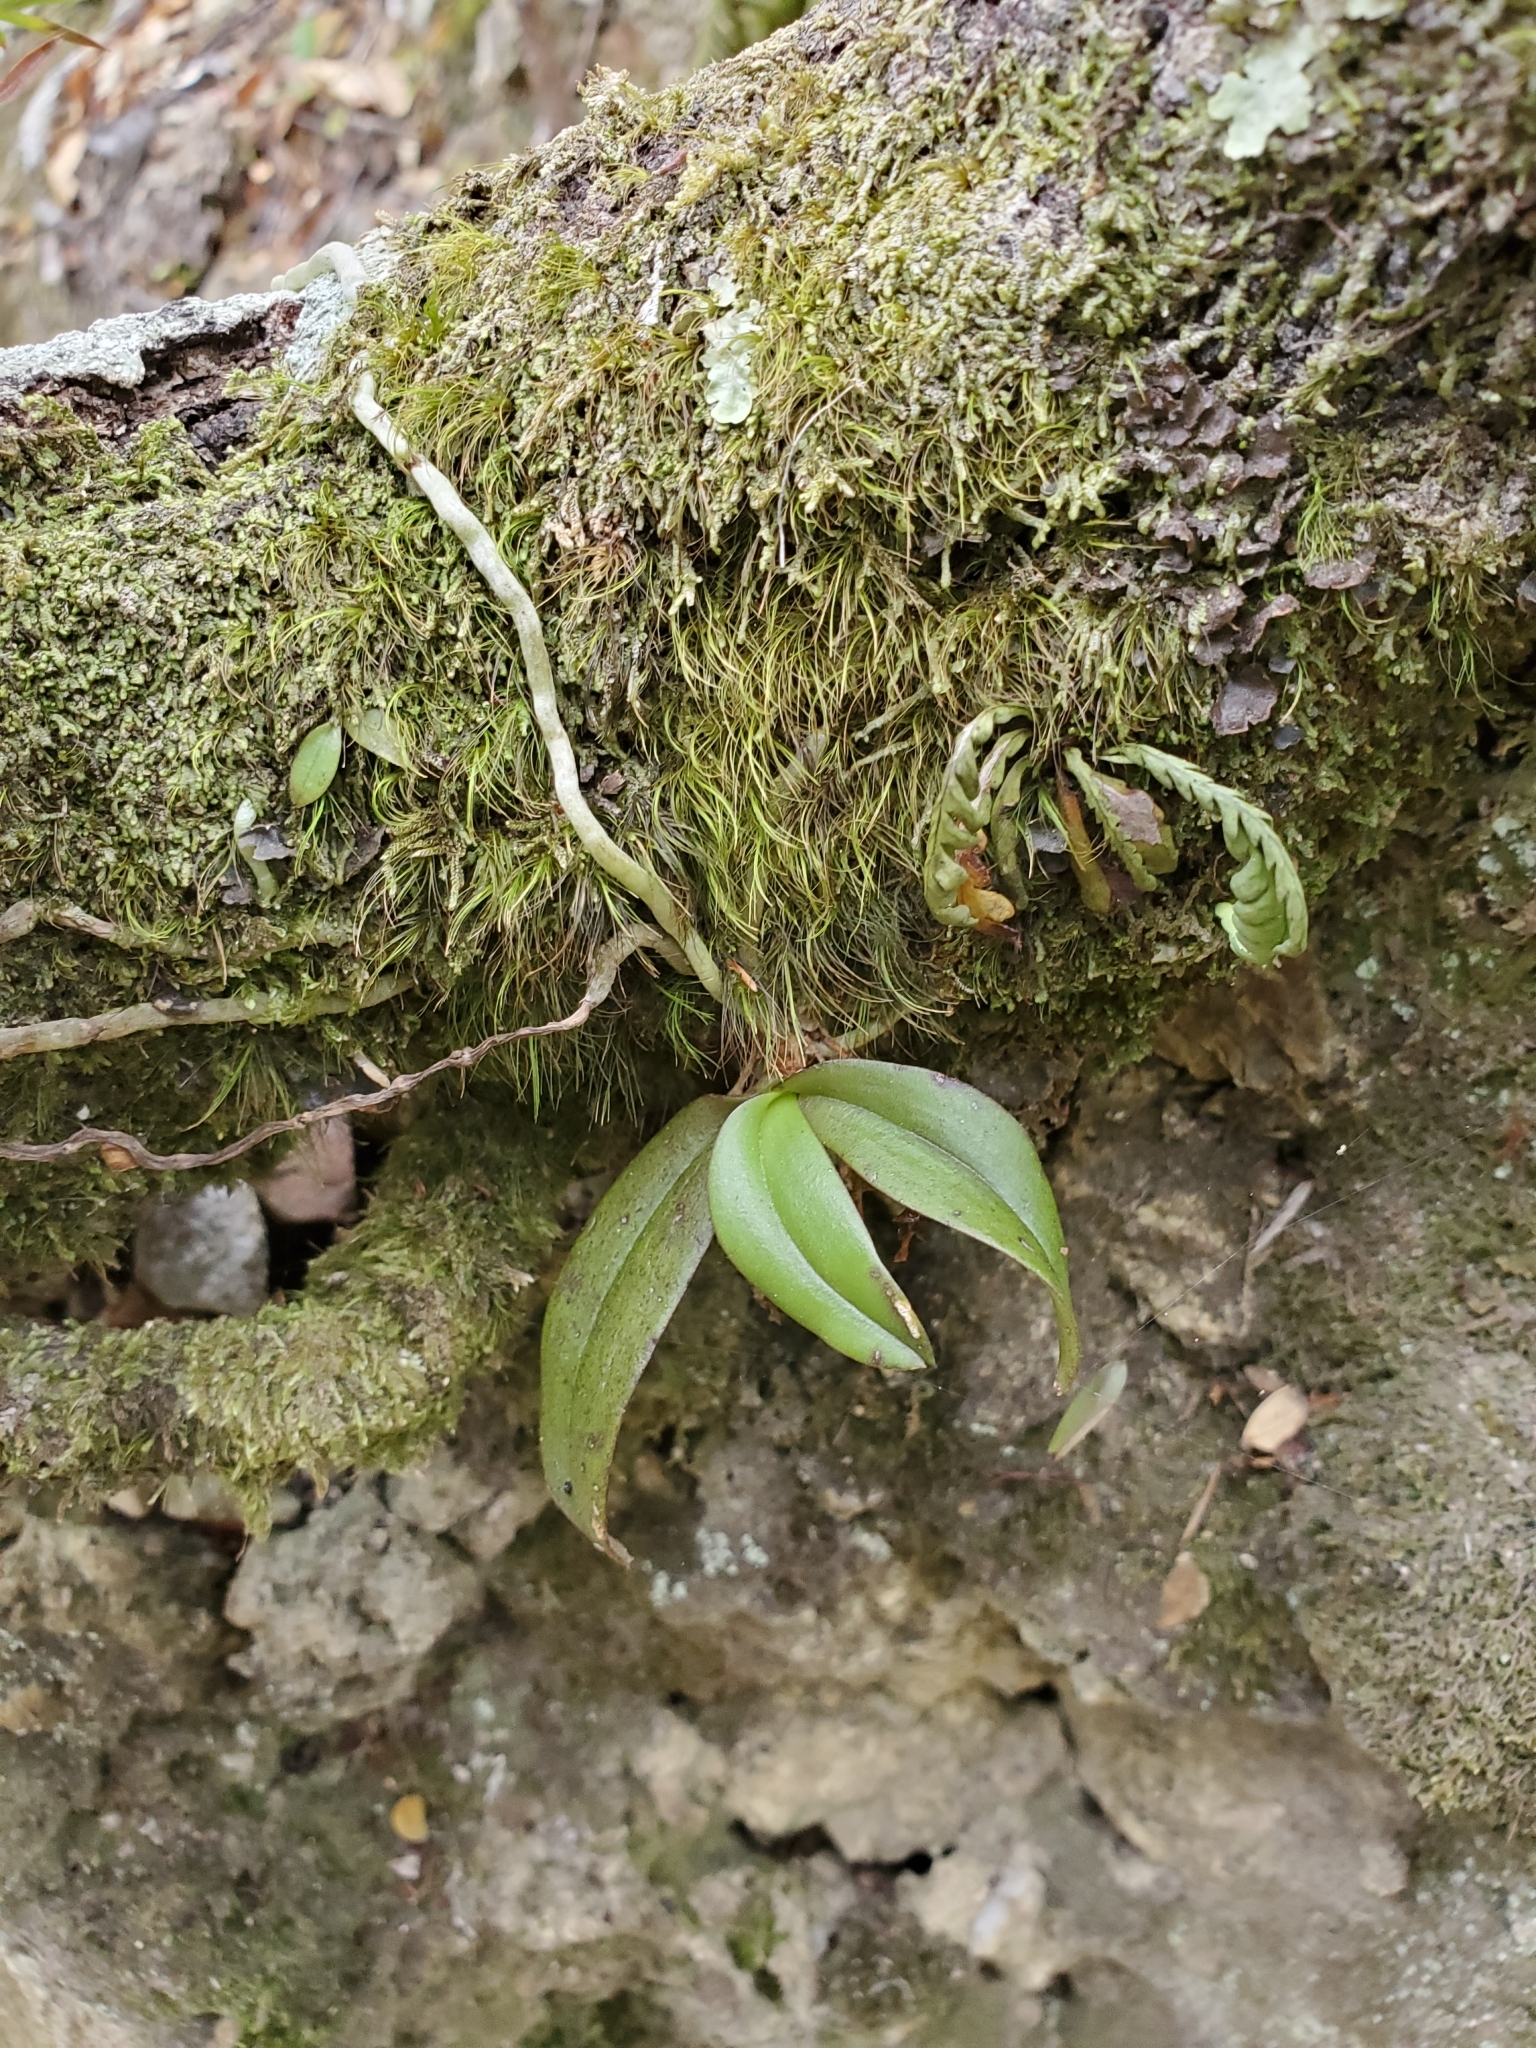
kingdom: Plantae
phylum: Tracheophyta
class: Liliopsida
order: Asparagales
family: Orchidaceae
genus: Drymoanthus
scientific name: Drymoanthus adversus
